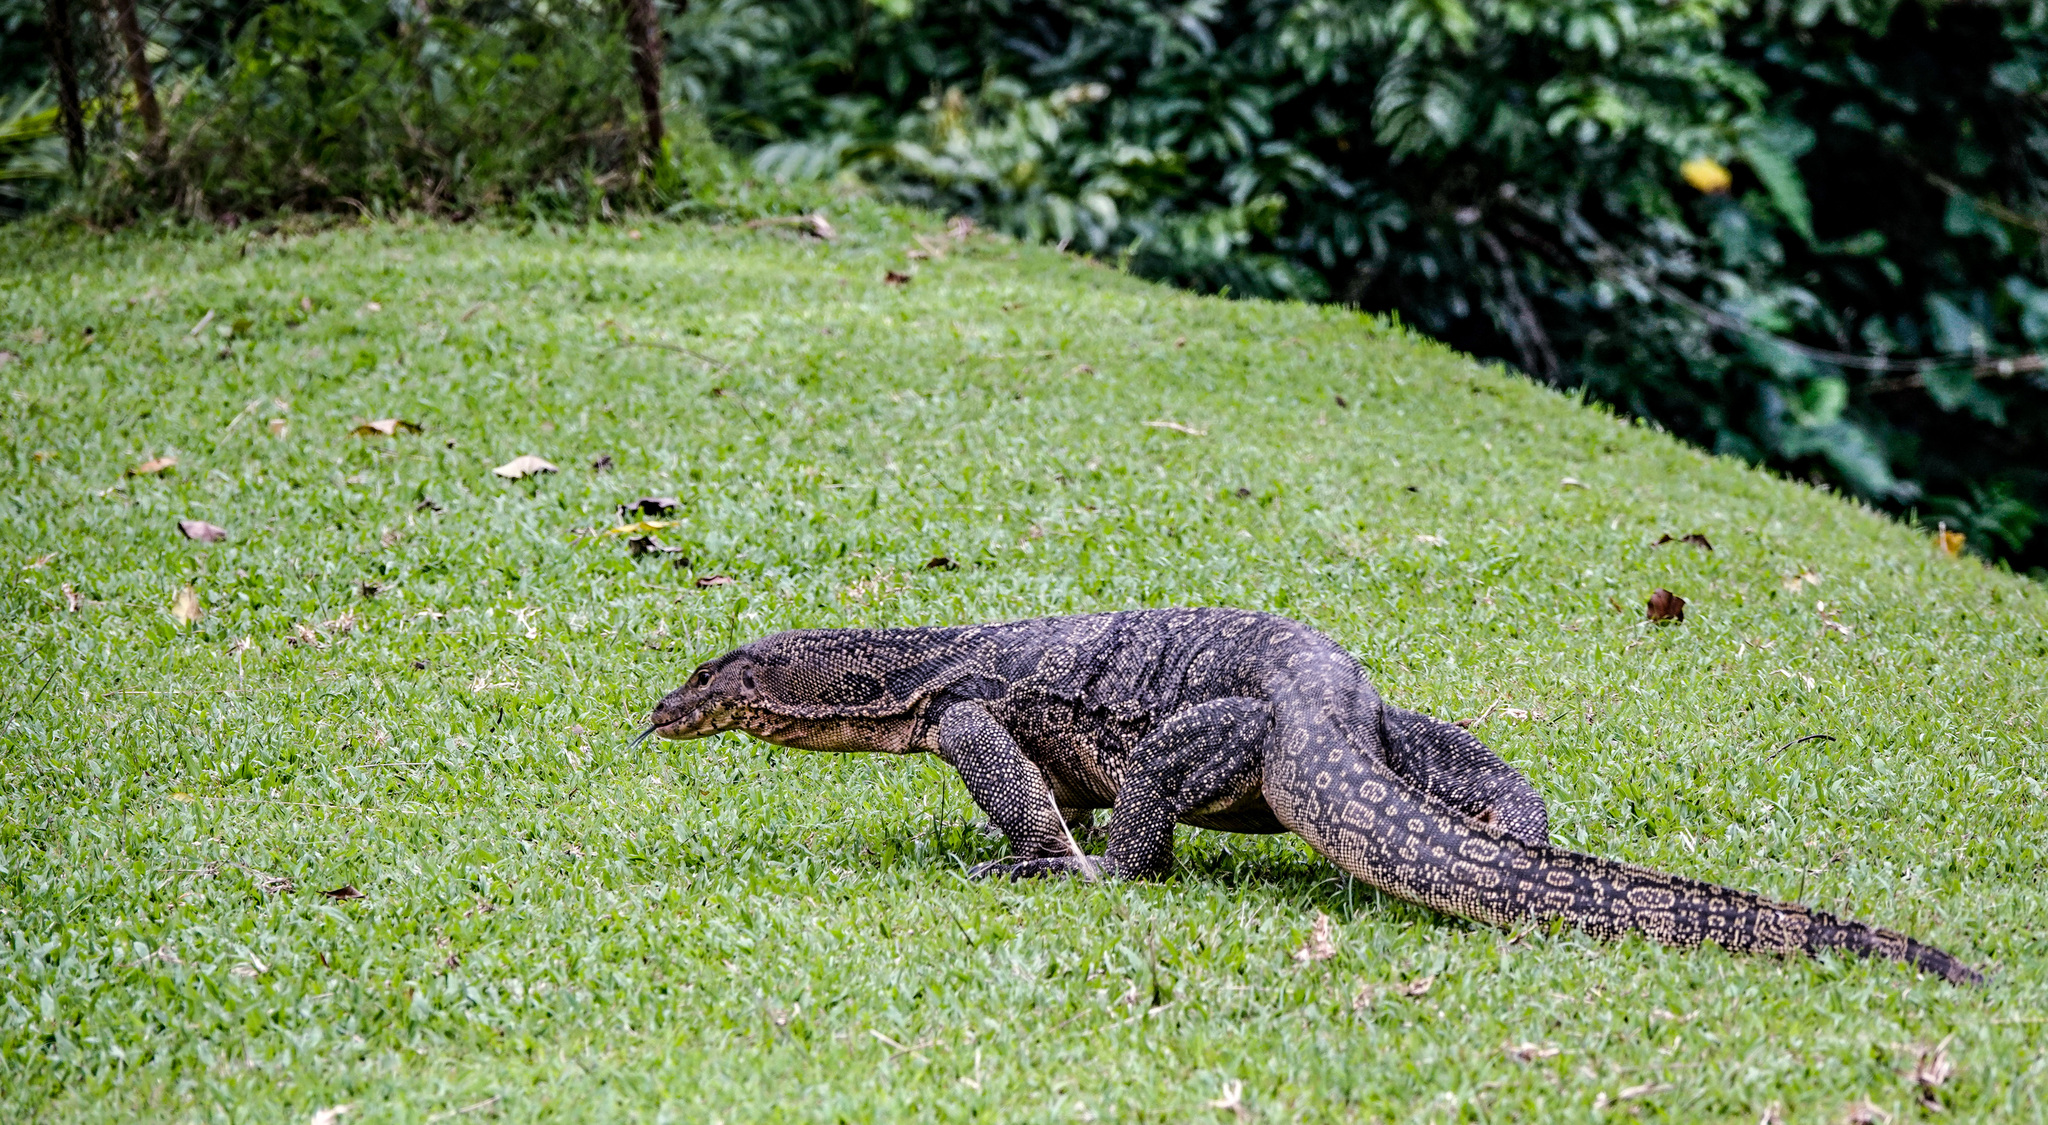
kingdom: Animalia
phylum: Chordata
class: Squamata
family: Varanidae
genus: Varanus
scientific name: Varanus salvator
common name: Common water monitor
